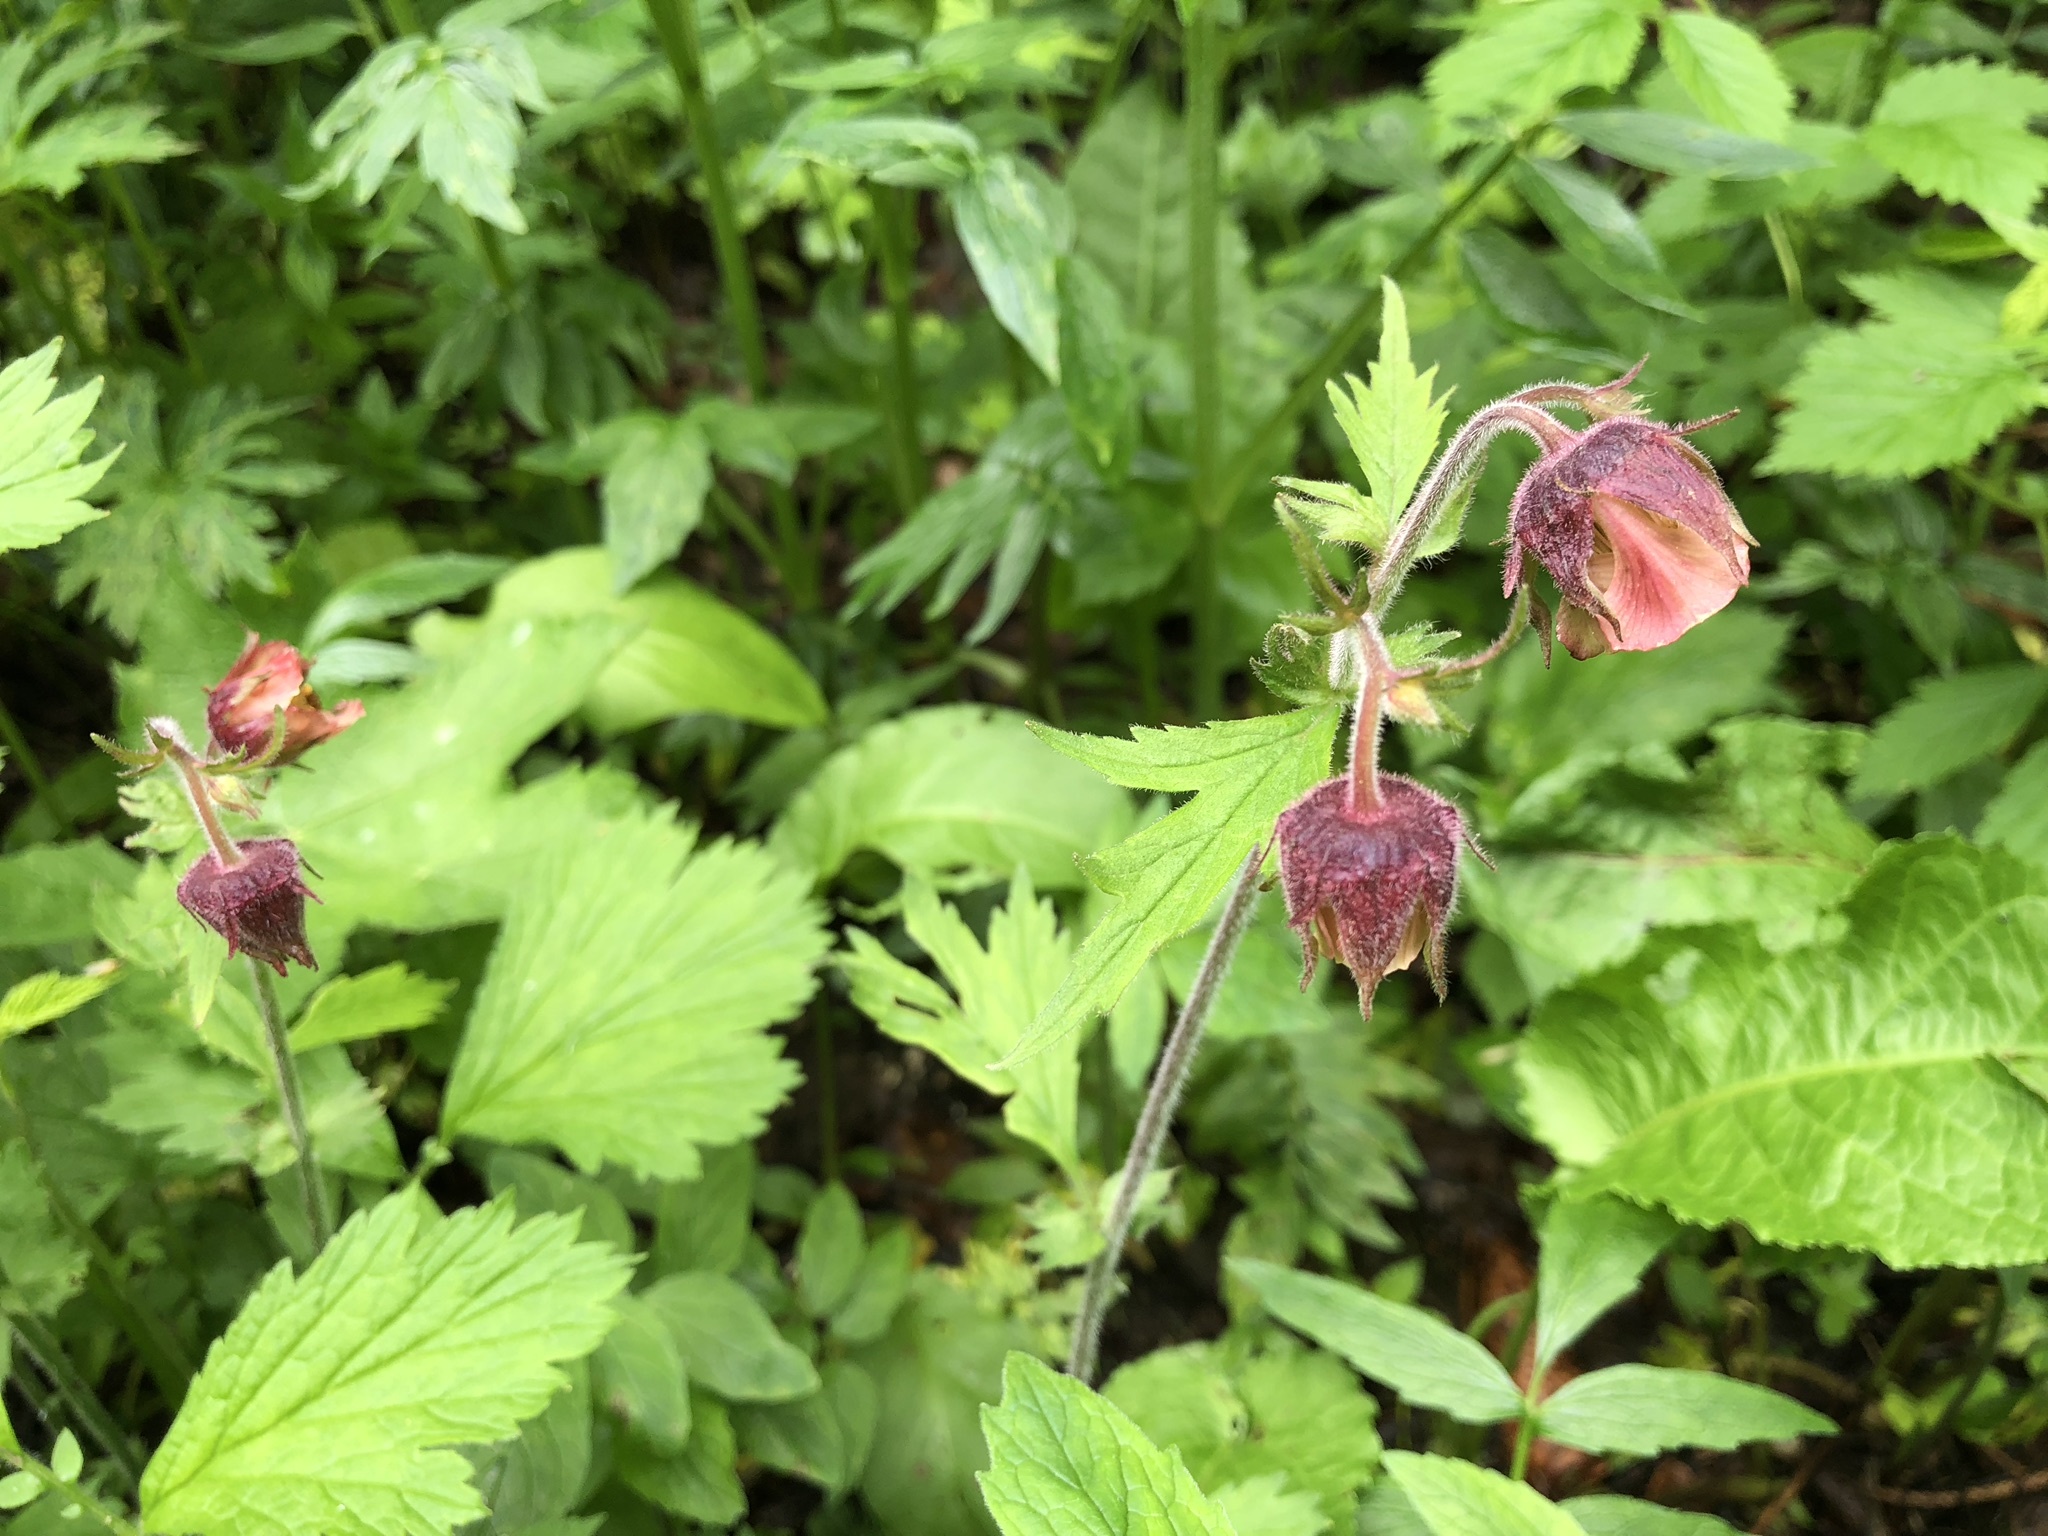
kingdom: Plantae
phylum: Tracheophyta
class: Magnoliopsida
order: Rosales
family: Rosaceae
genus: Geum
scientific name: Geum rivale
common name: Water avens
